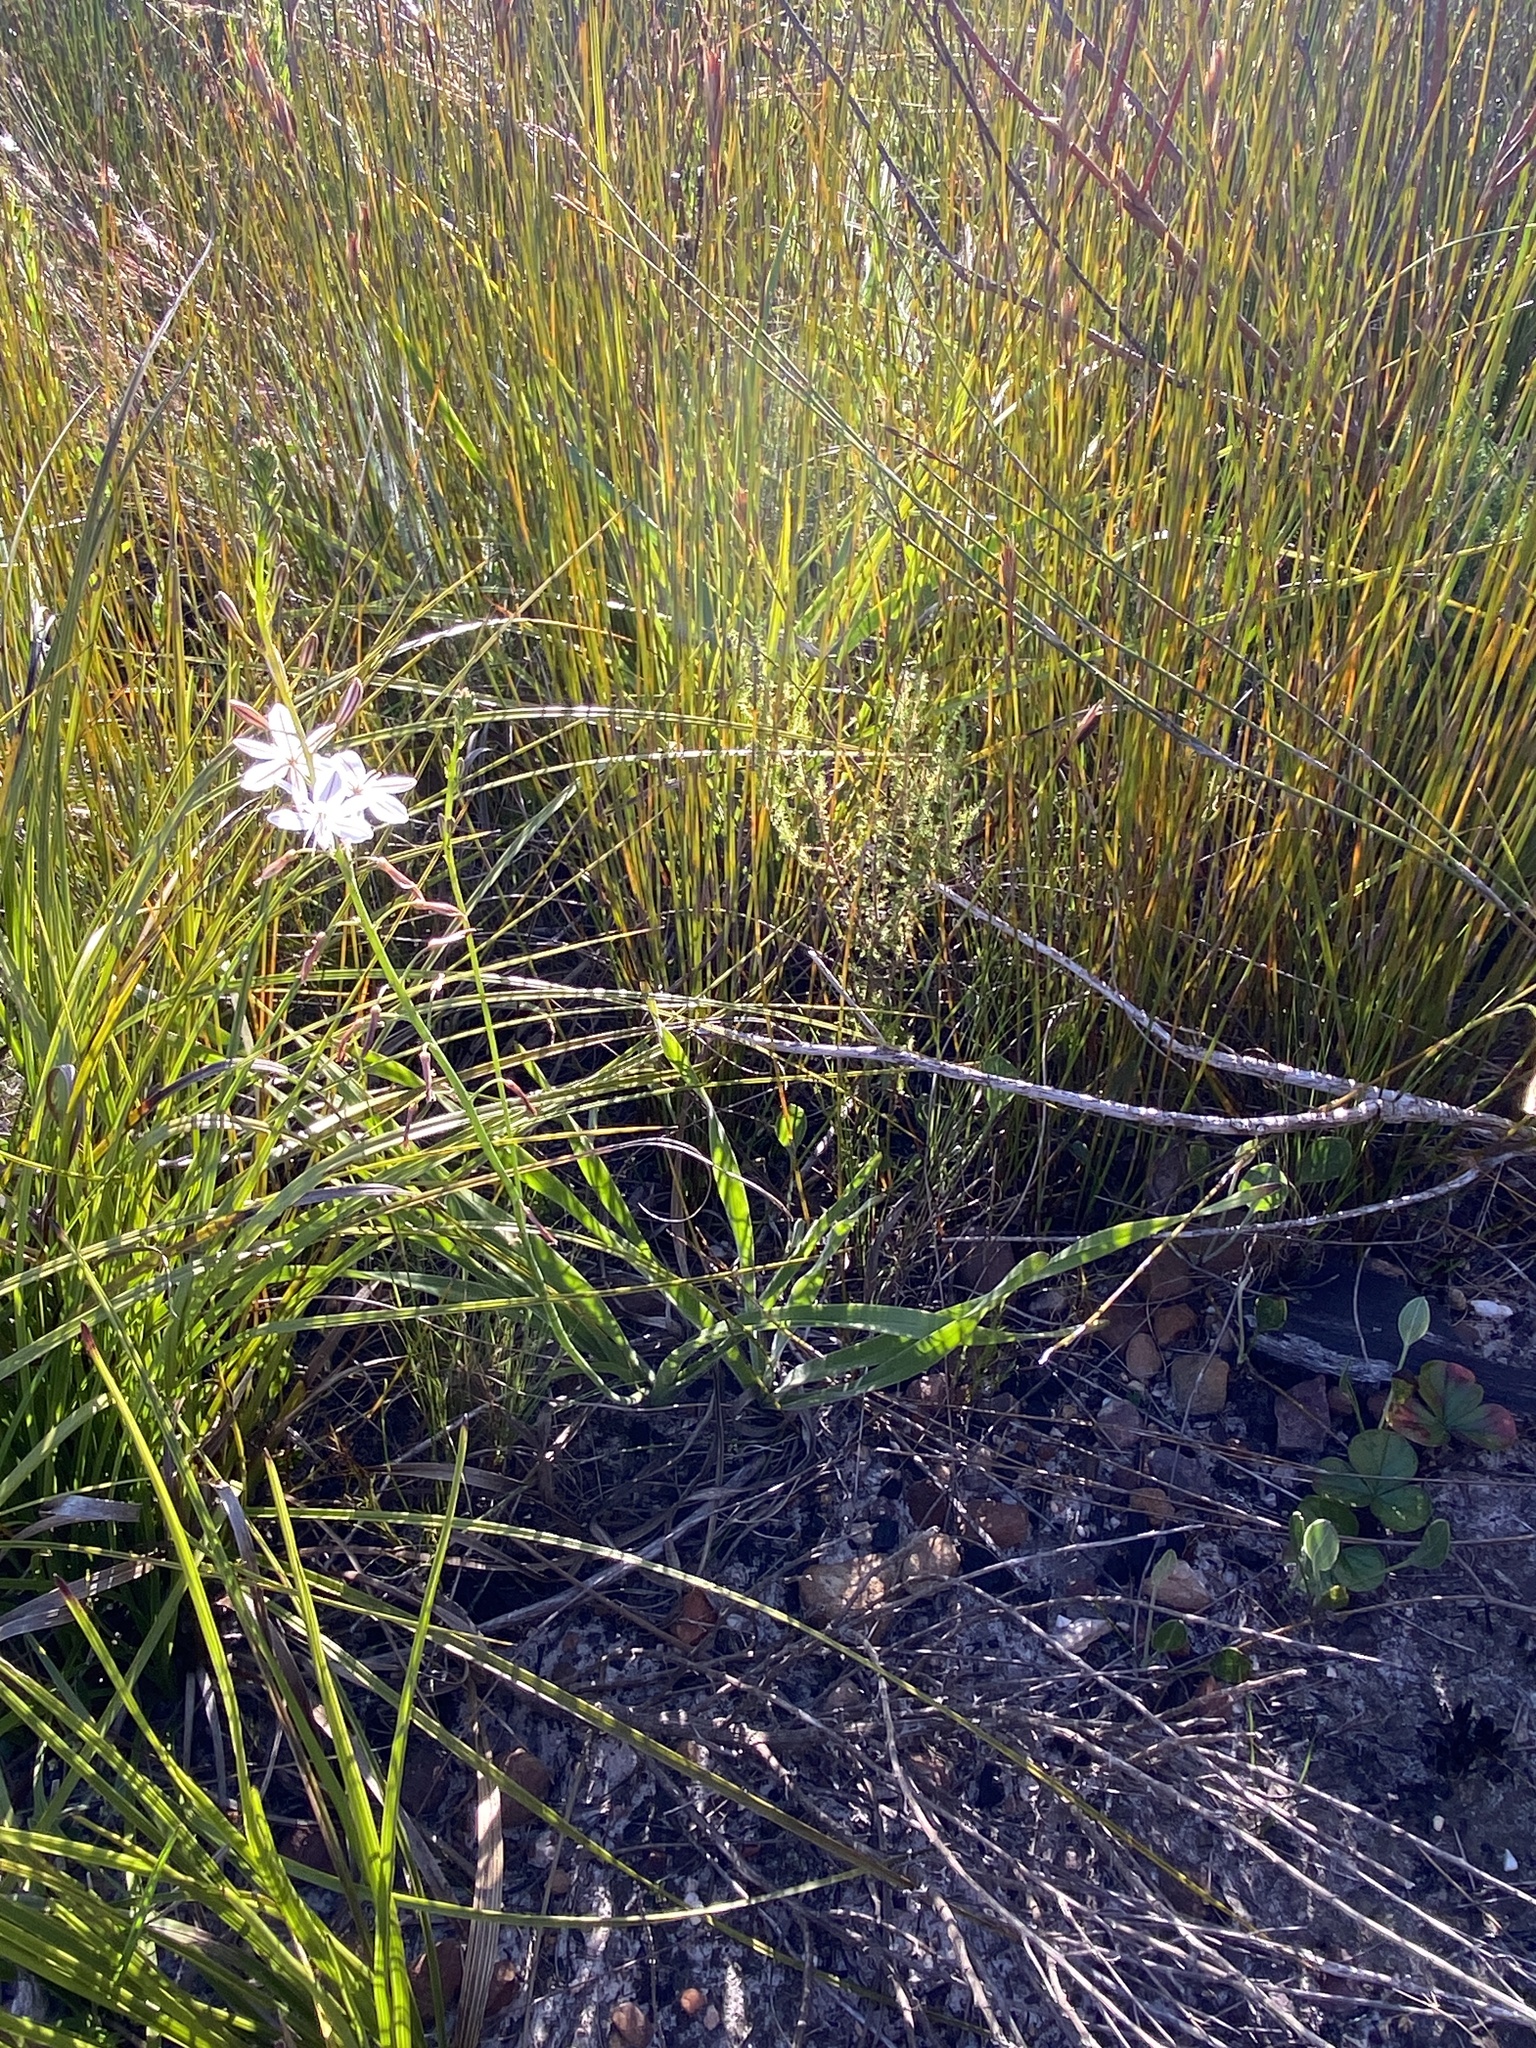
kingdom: Plantae
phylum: Tracheophyta
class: Liliopsida
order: Asparagales
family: Asphodelaceae
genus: Trachyandra
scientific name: Trachyandra hirsuta
